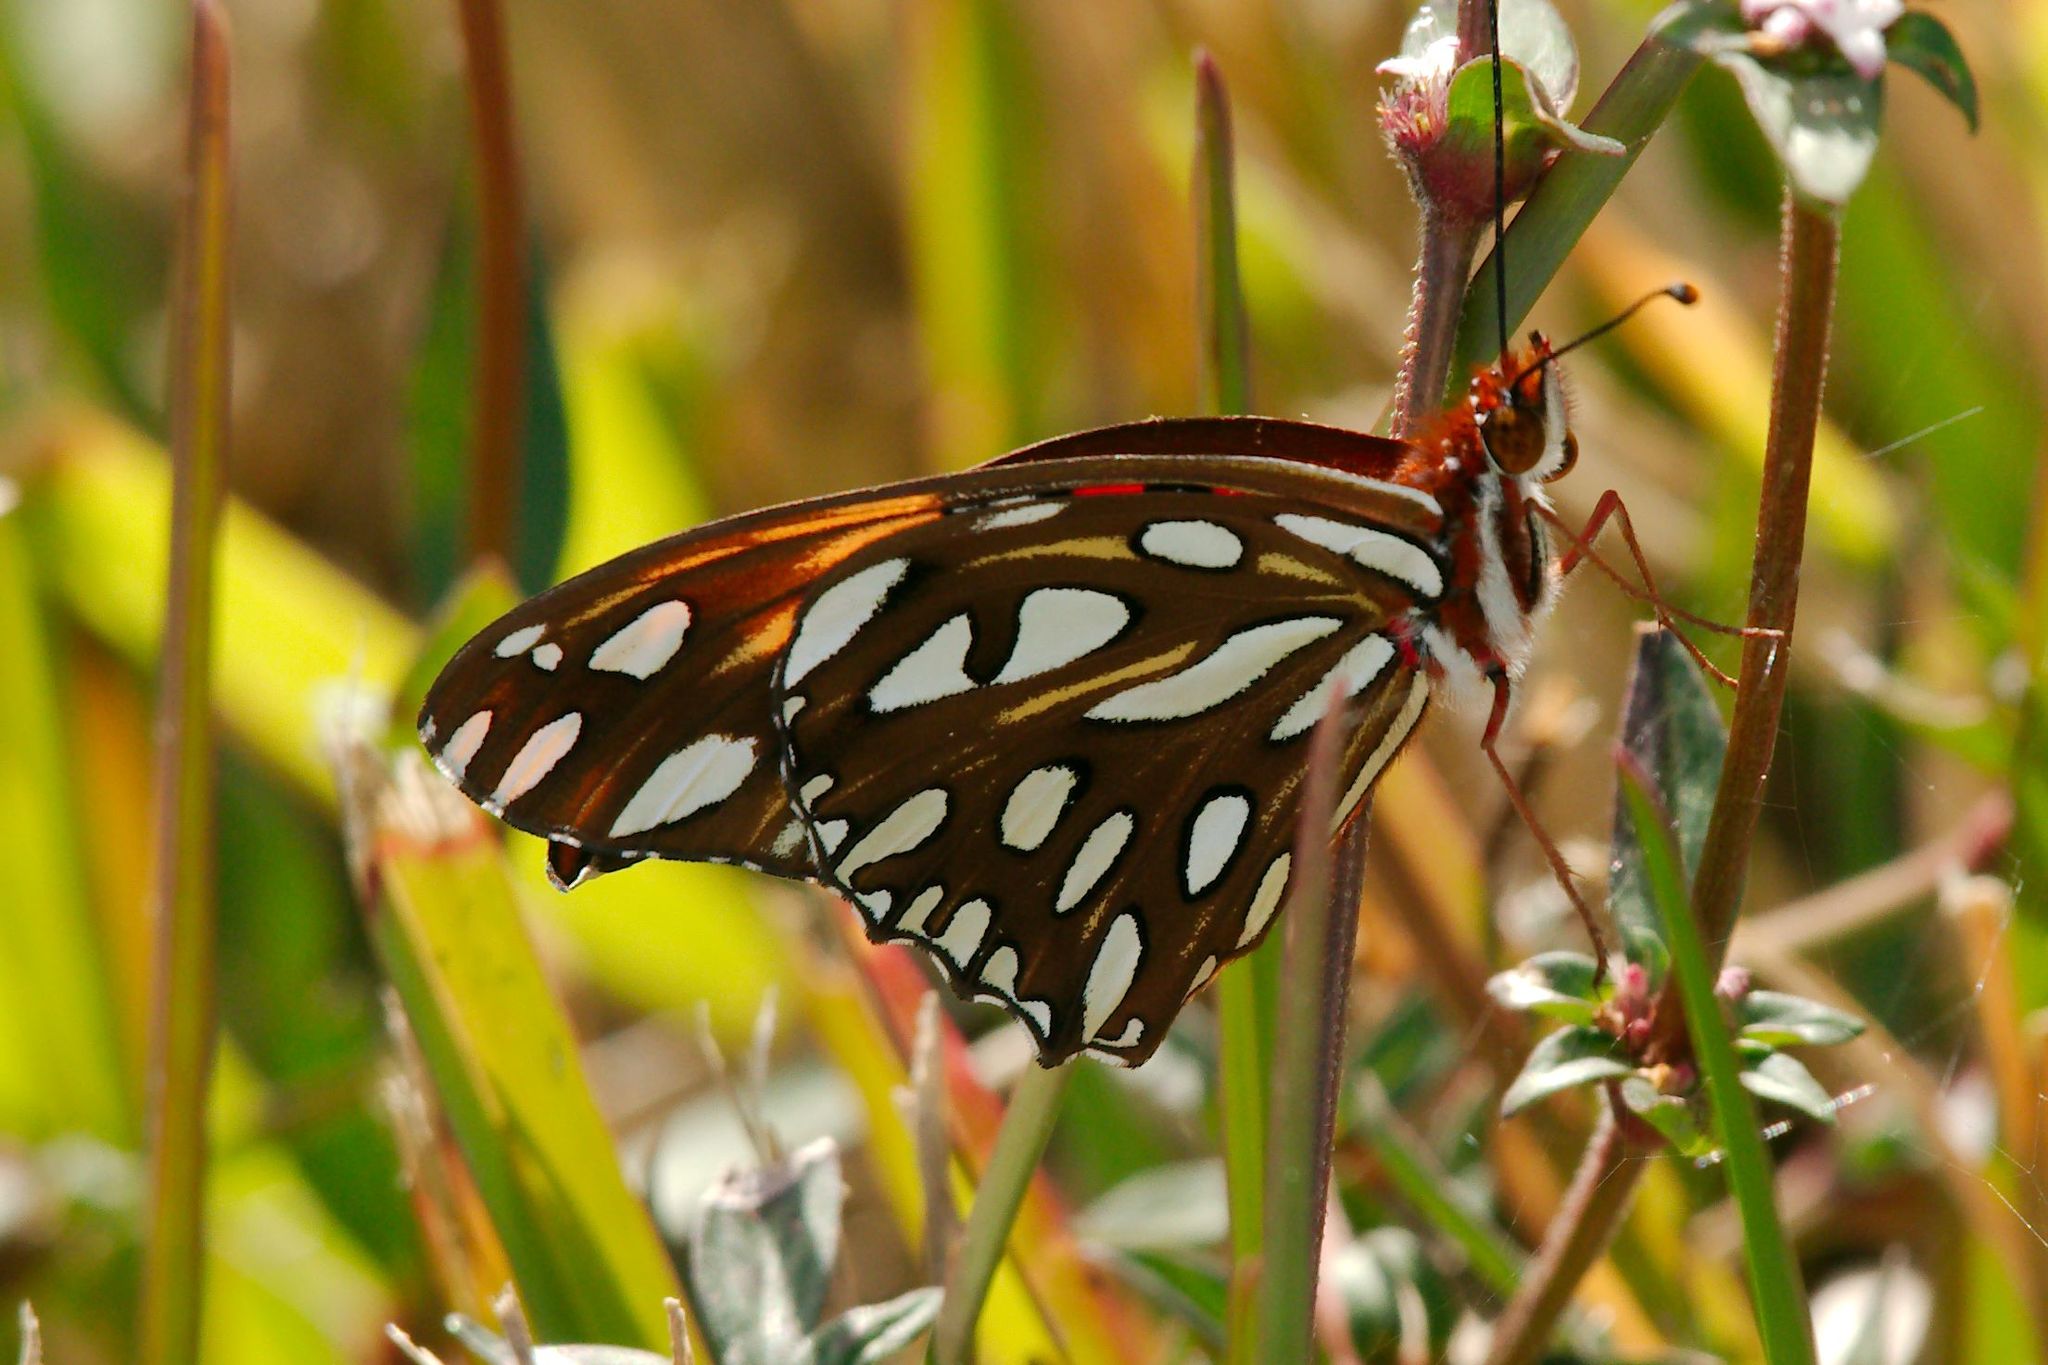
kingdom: Animalia
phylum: Arthropoda
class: Insecta
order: Lepidoptera
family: Nymphalidae
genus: Dione
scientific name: Dione vanillae
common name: Gulf fritillary
